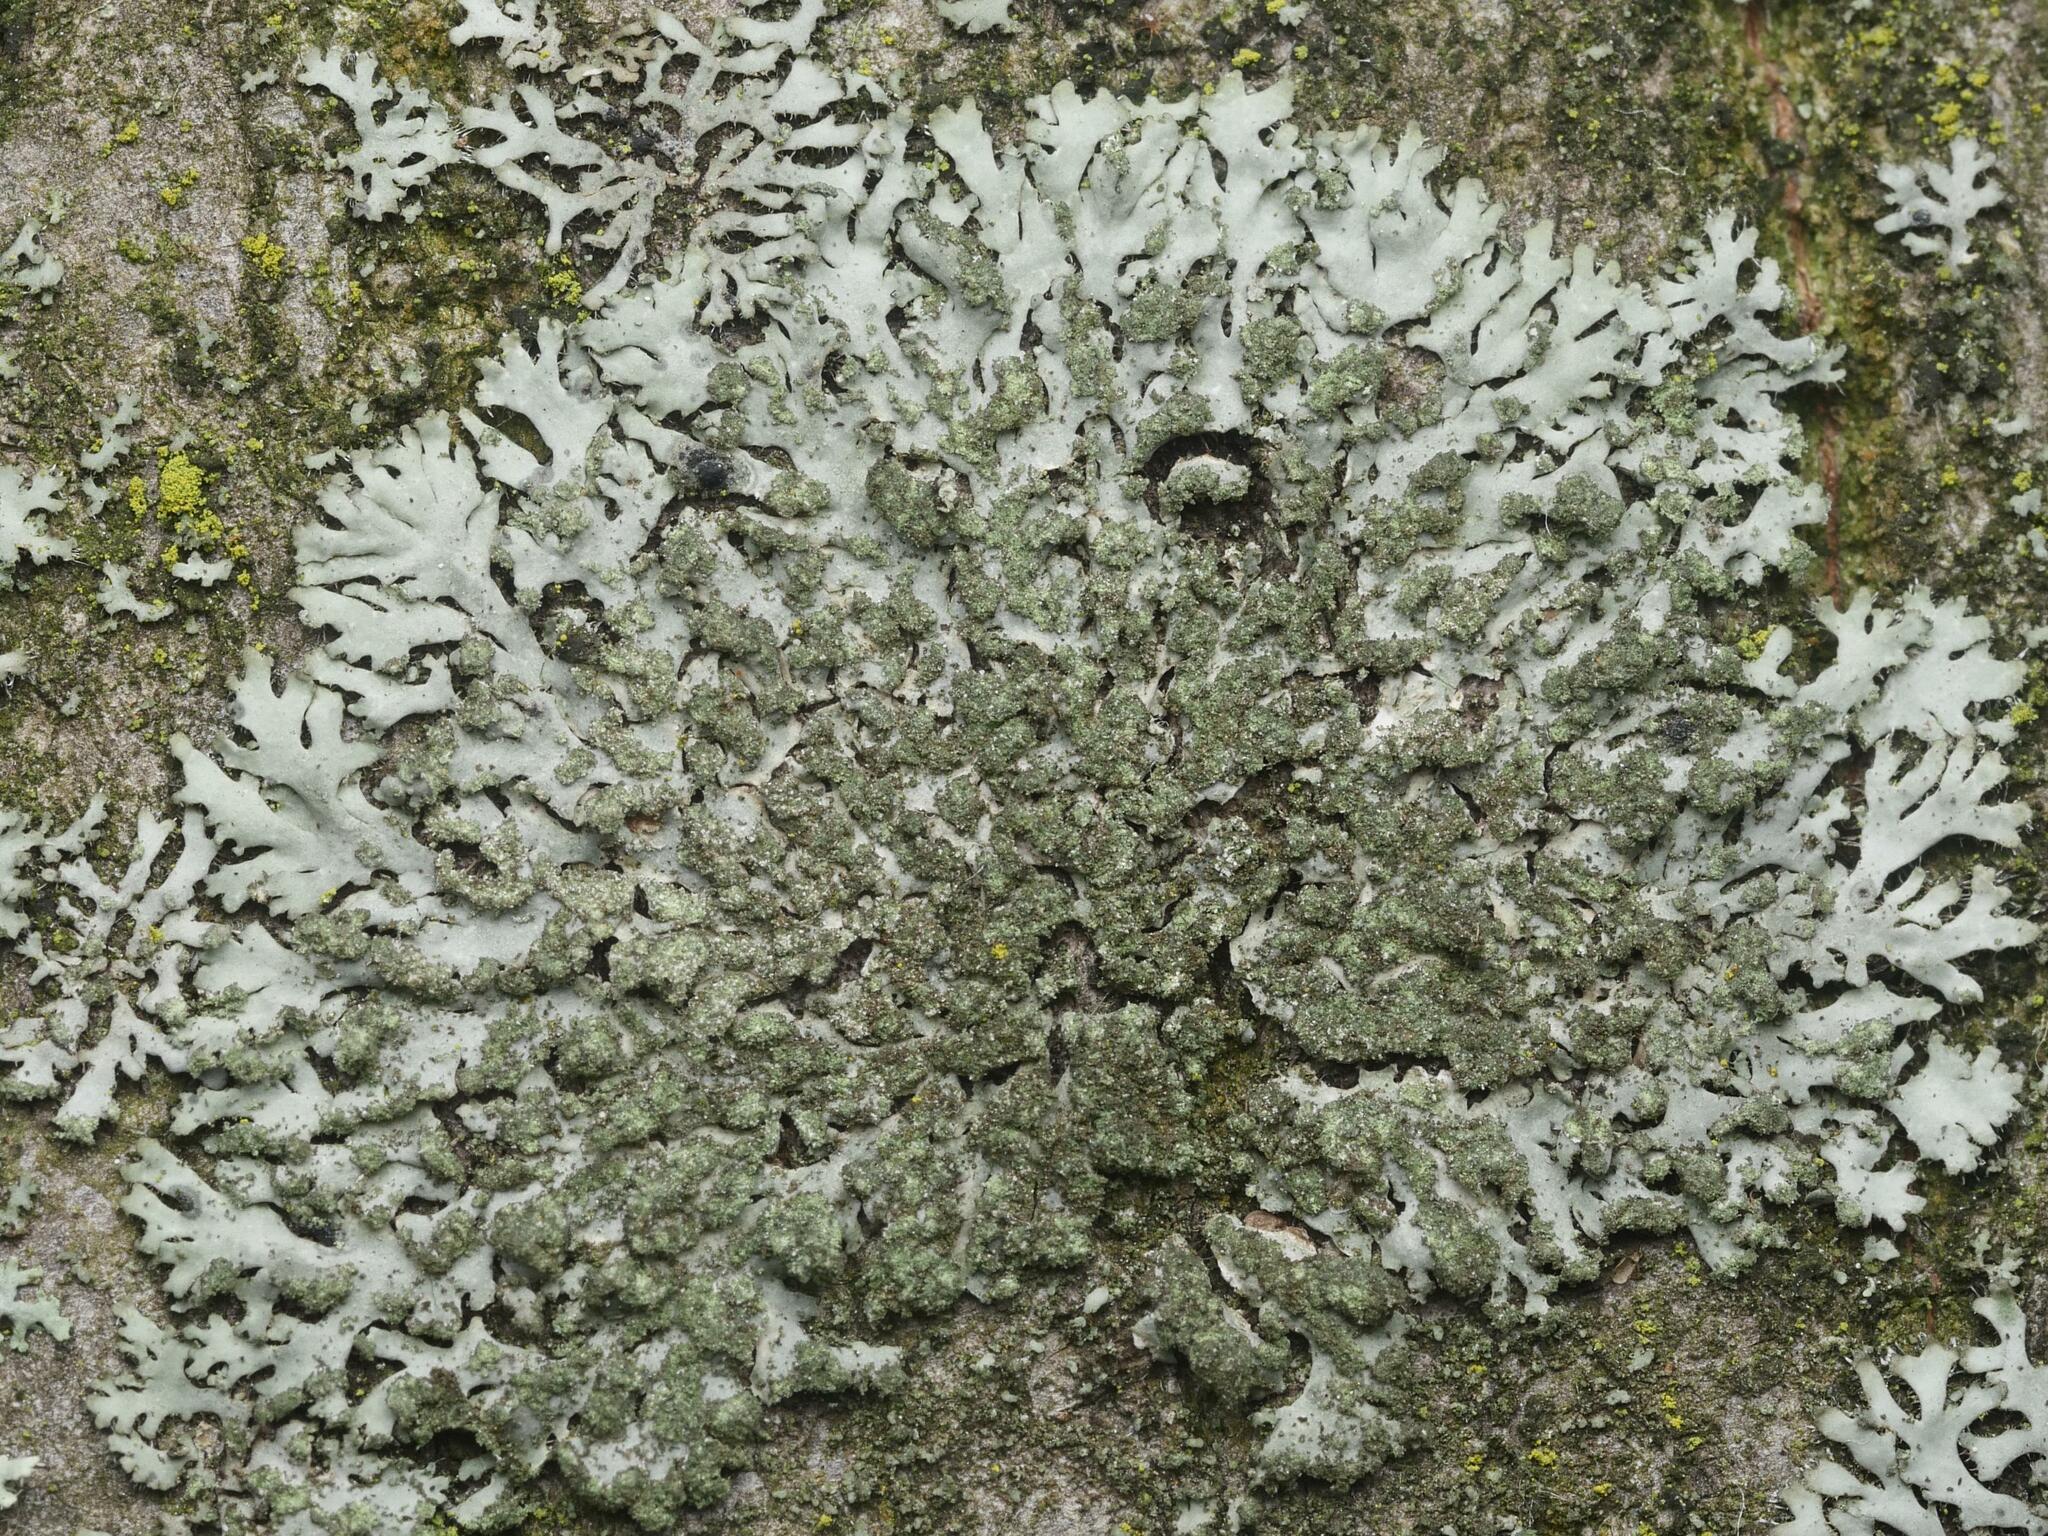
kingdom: Fungi
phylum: Ascomycota
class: Lecanoromycetes
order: Caliciales
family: Physciaceae
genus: Phaeophyscia
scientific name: Phaeophyscia orbicularis
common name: Mealy shadow lichen
